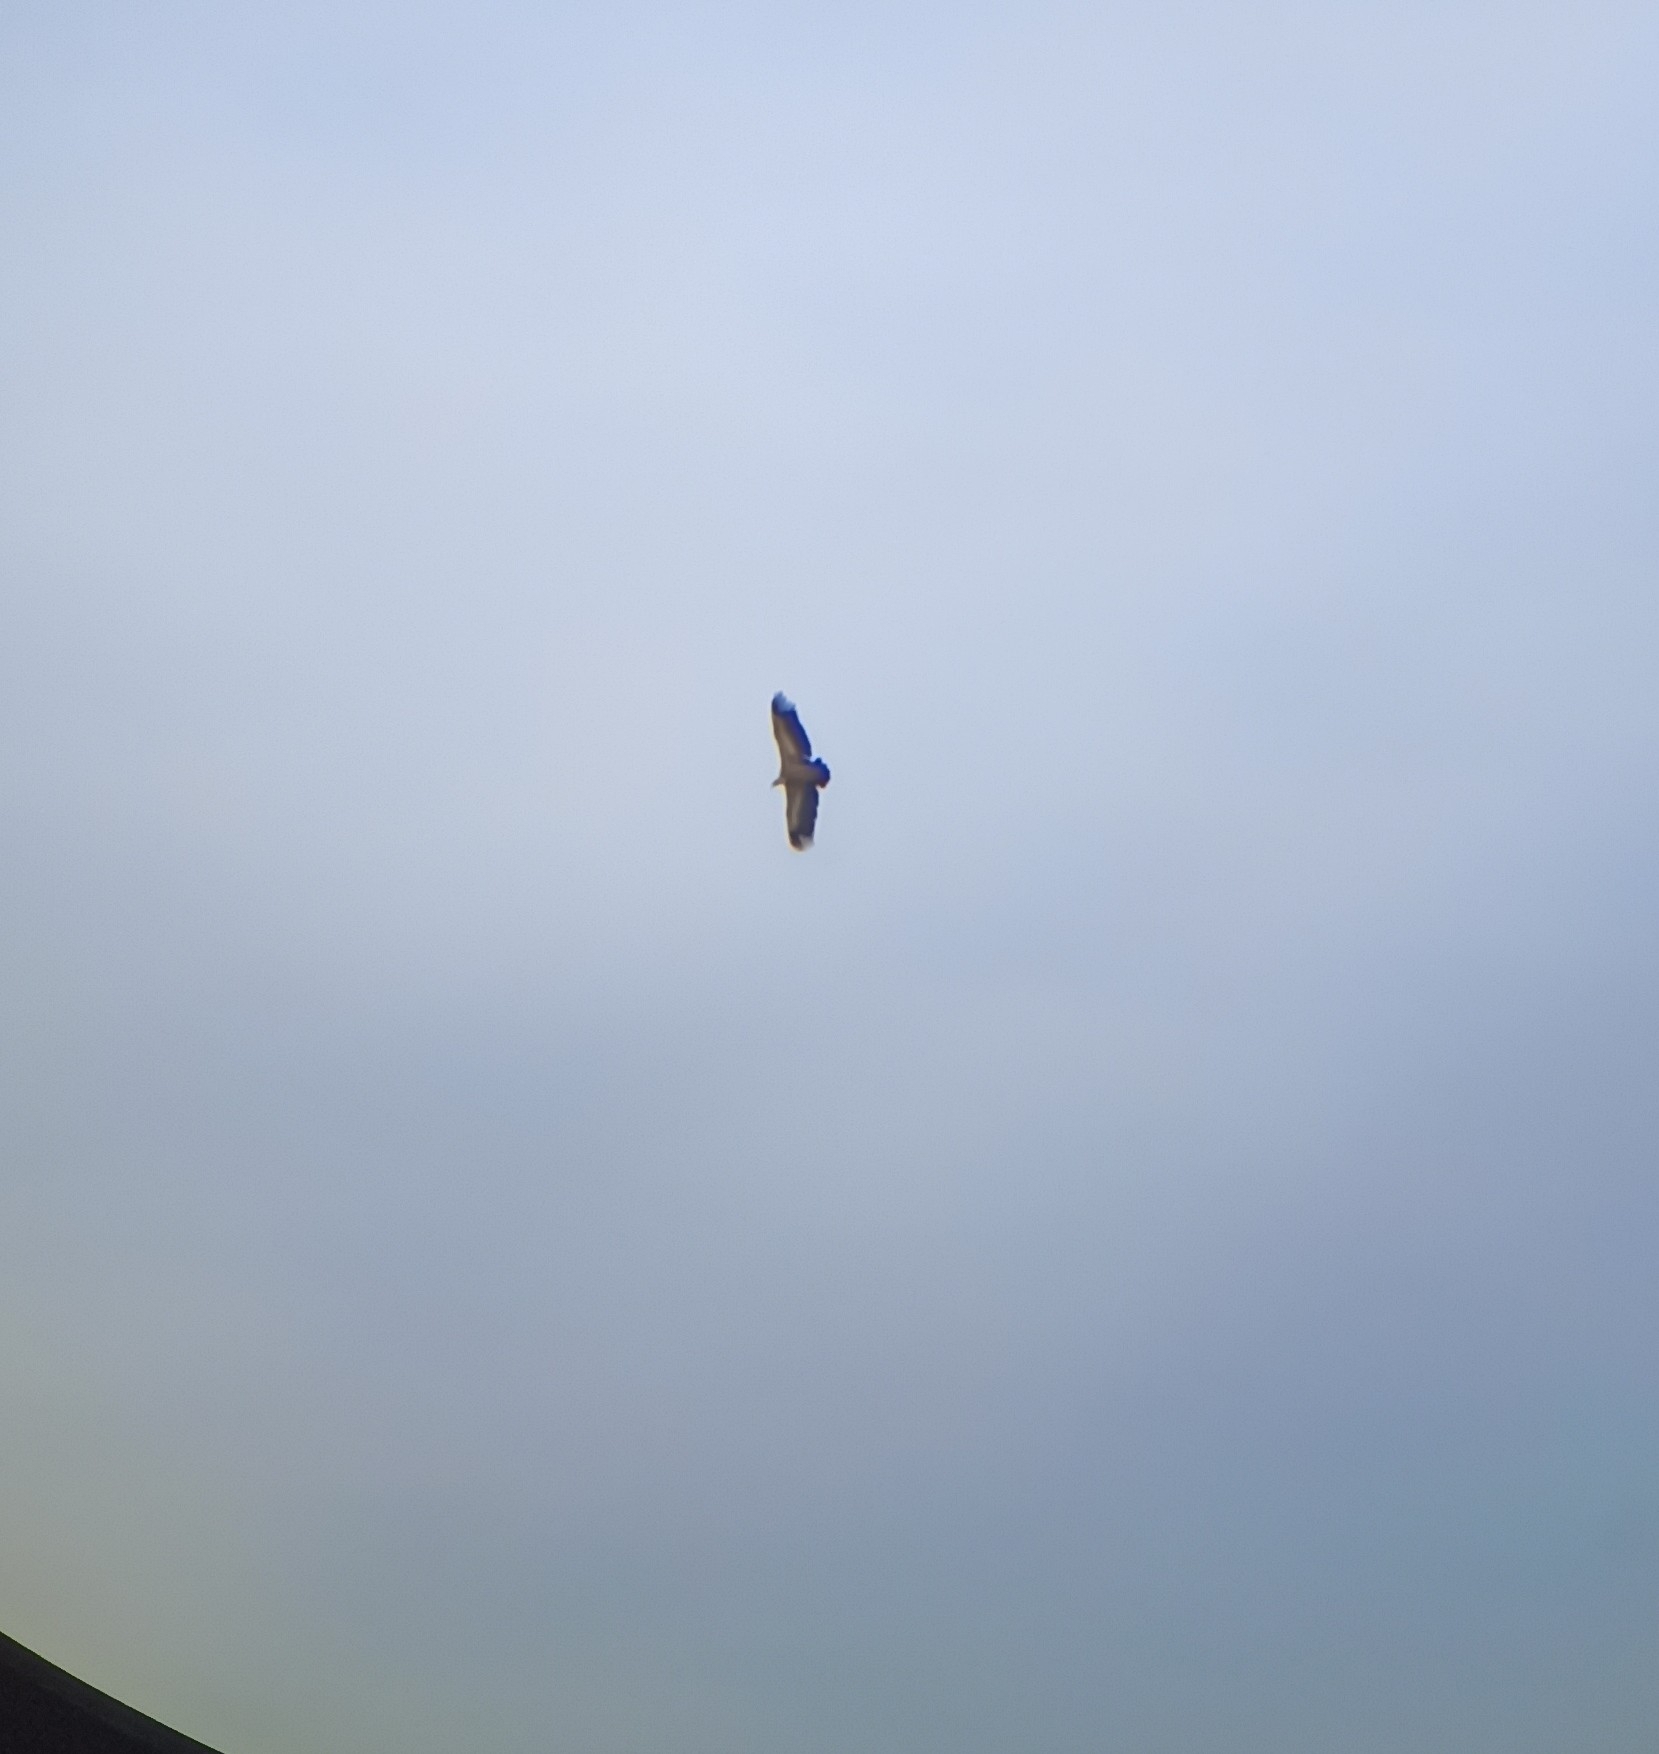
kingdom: Animalia
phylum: Chordata
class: Aves
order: Accipitriformes
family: Accipitridae
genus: Gyps
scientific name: Gyps fulvus
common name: Griffon vulture
